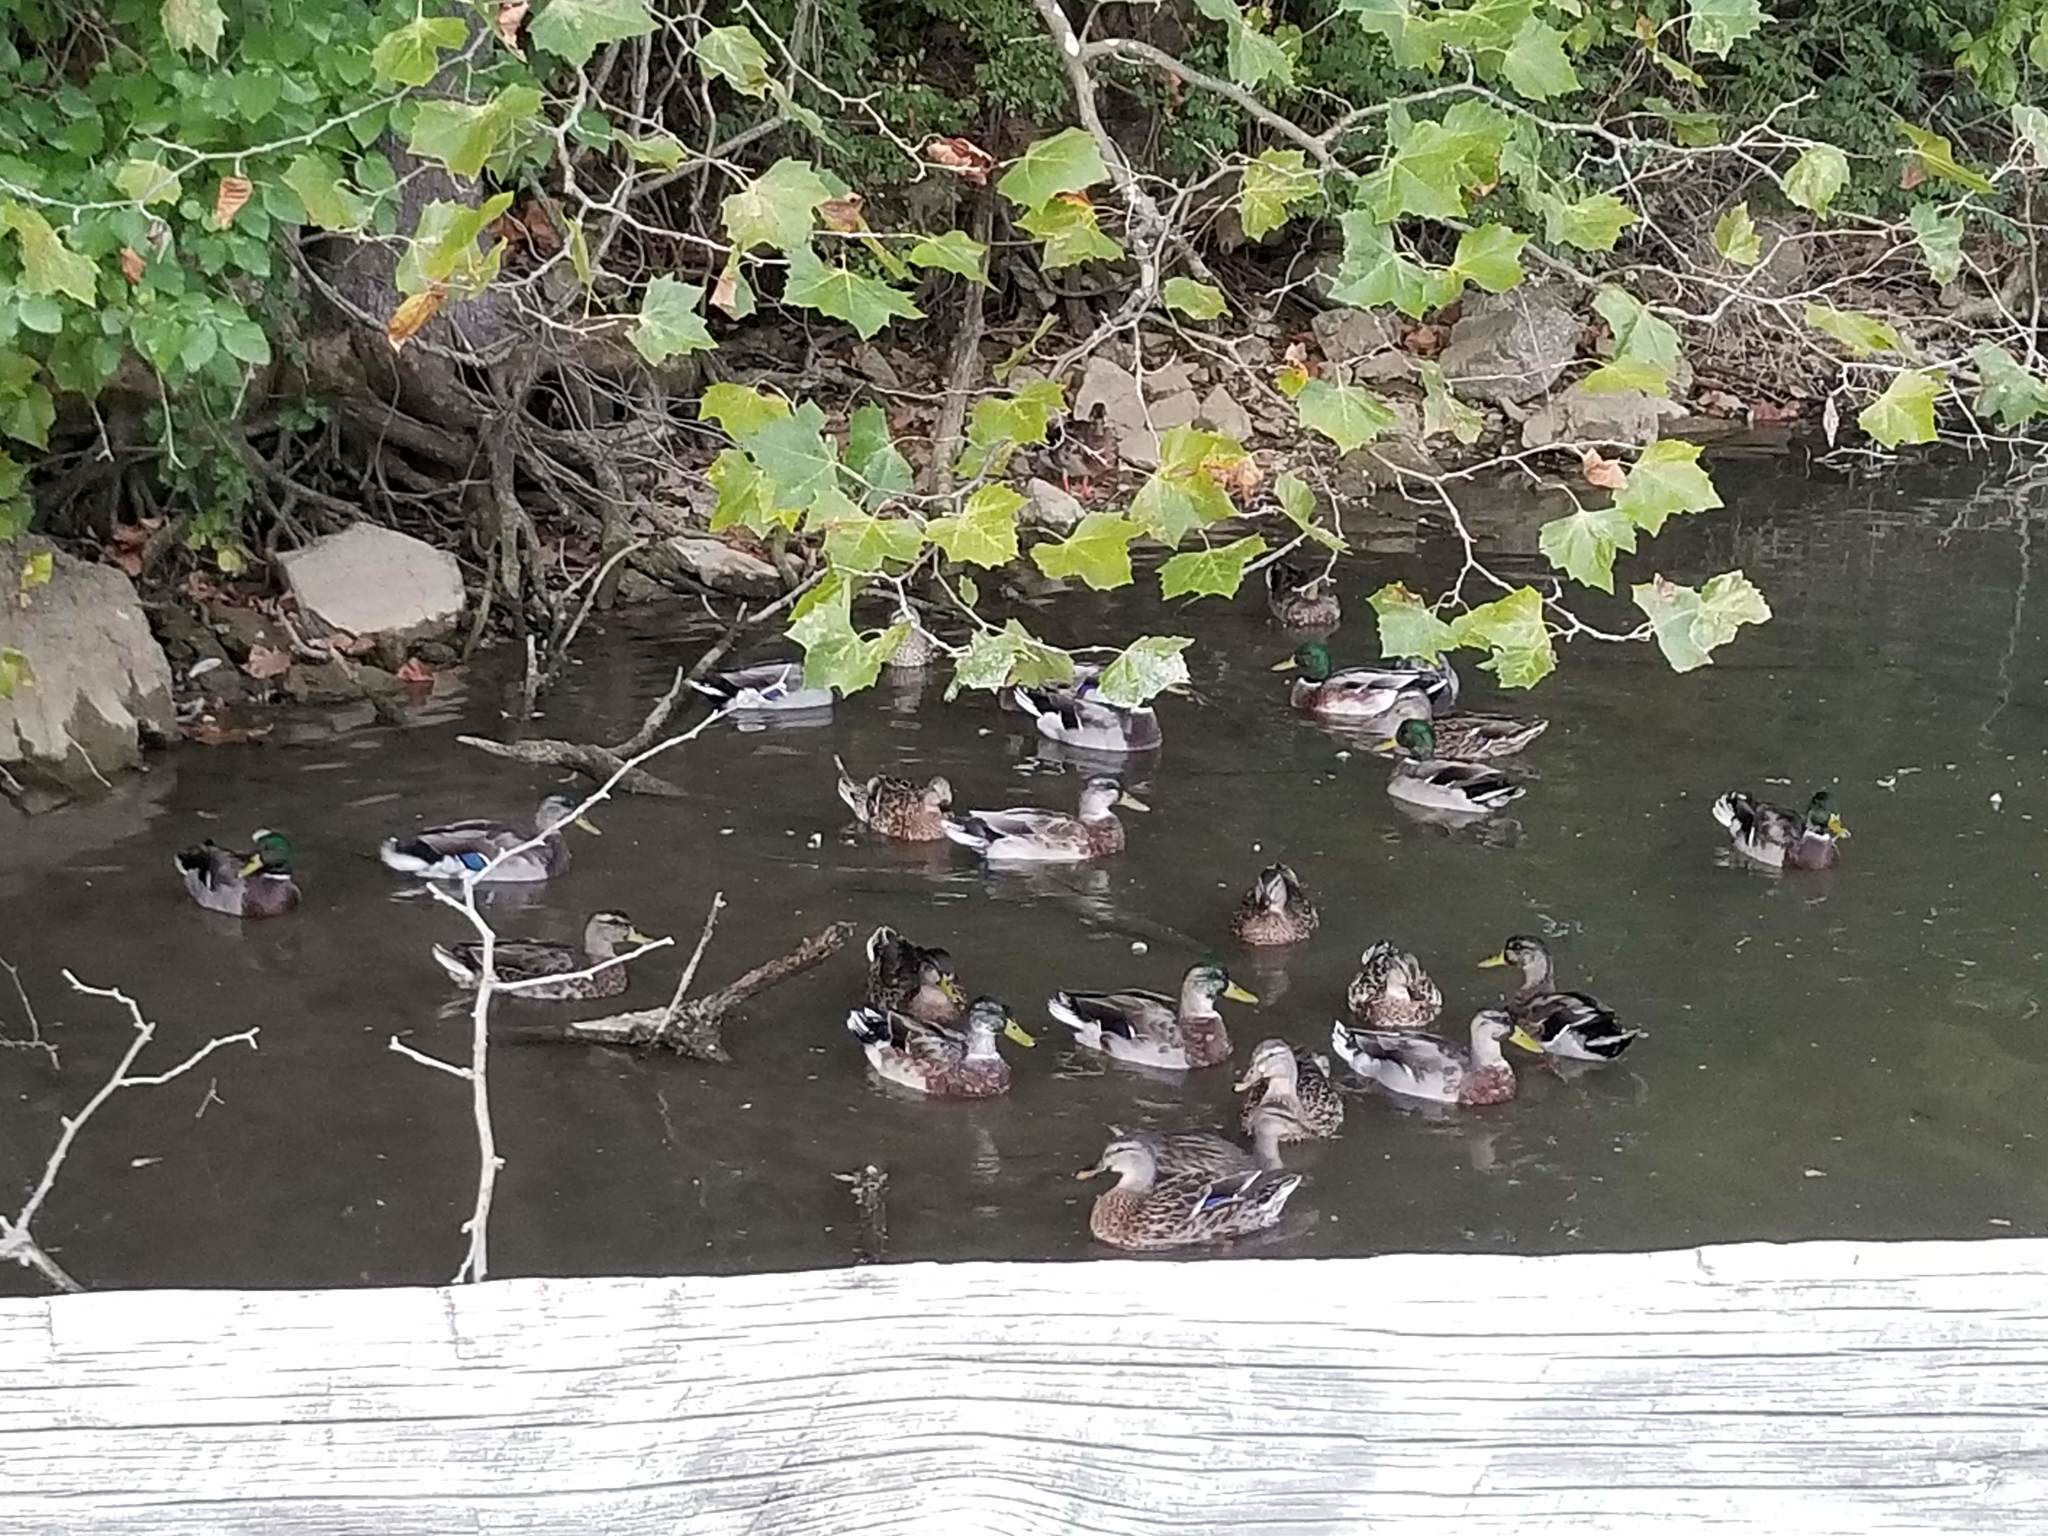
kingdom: Animalia
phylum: Chordata
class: Aves
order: Anseriformes
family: Anatidae
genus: Anas
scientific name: Anas platyrhynchos
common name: Mallard
